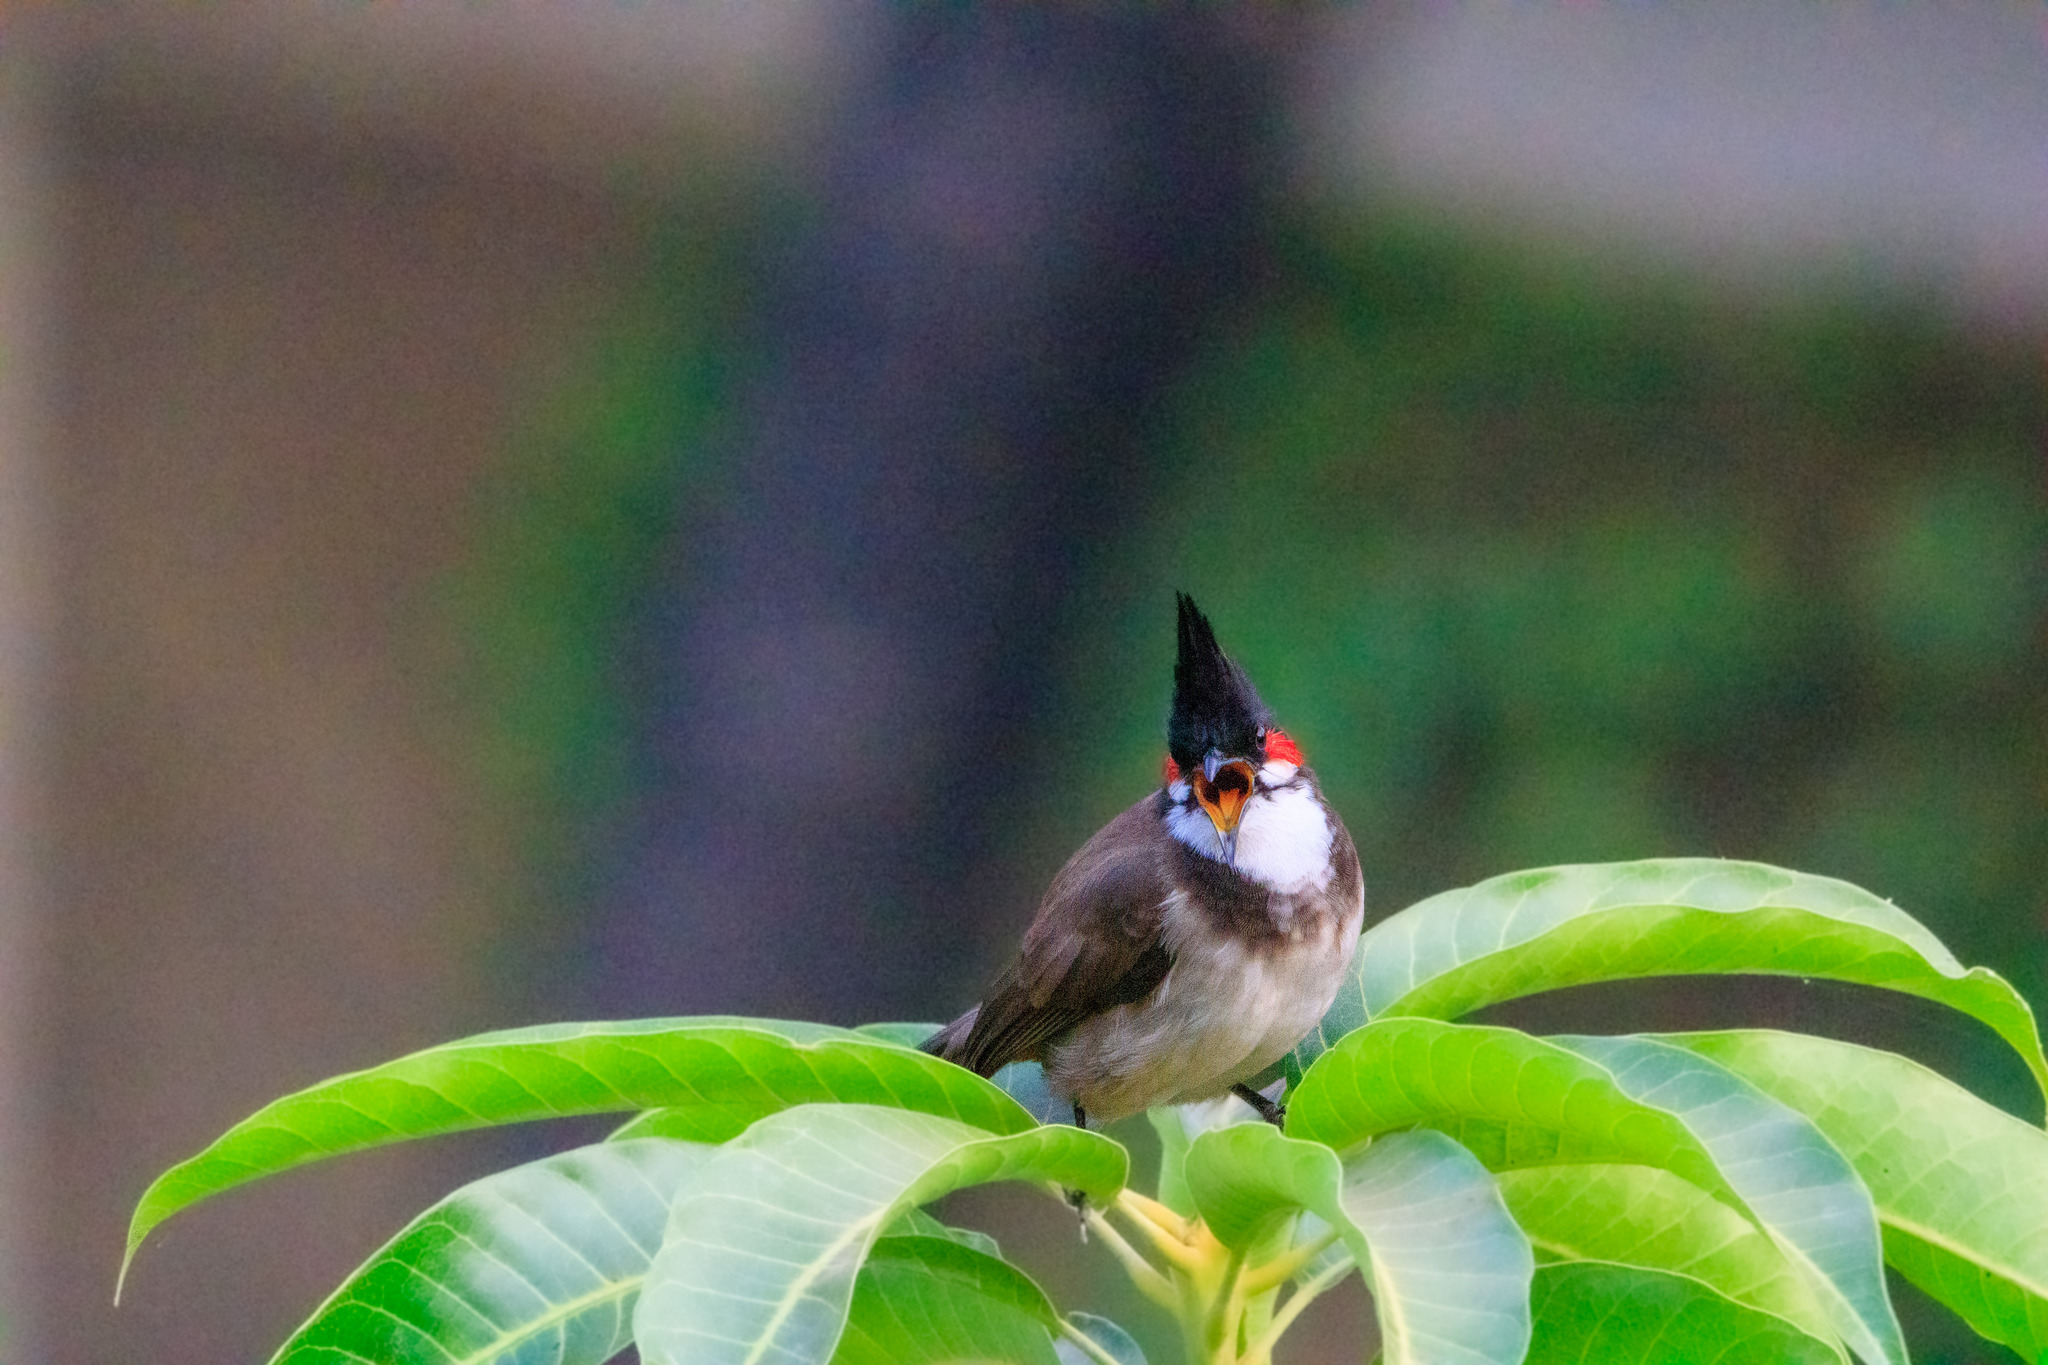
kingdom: Animalia
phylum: Chordata
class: Aves
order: Passeriformes
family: Pycnonotidae
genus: Pycnonotus
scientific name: Pycnonotus jocosus
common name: Red-whiskered bulbul
